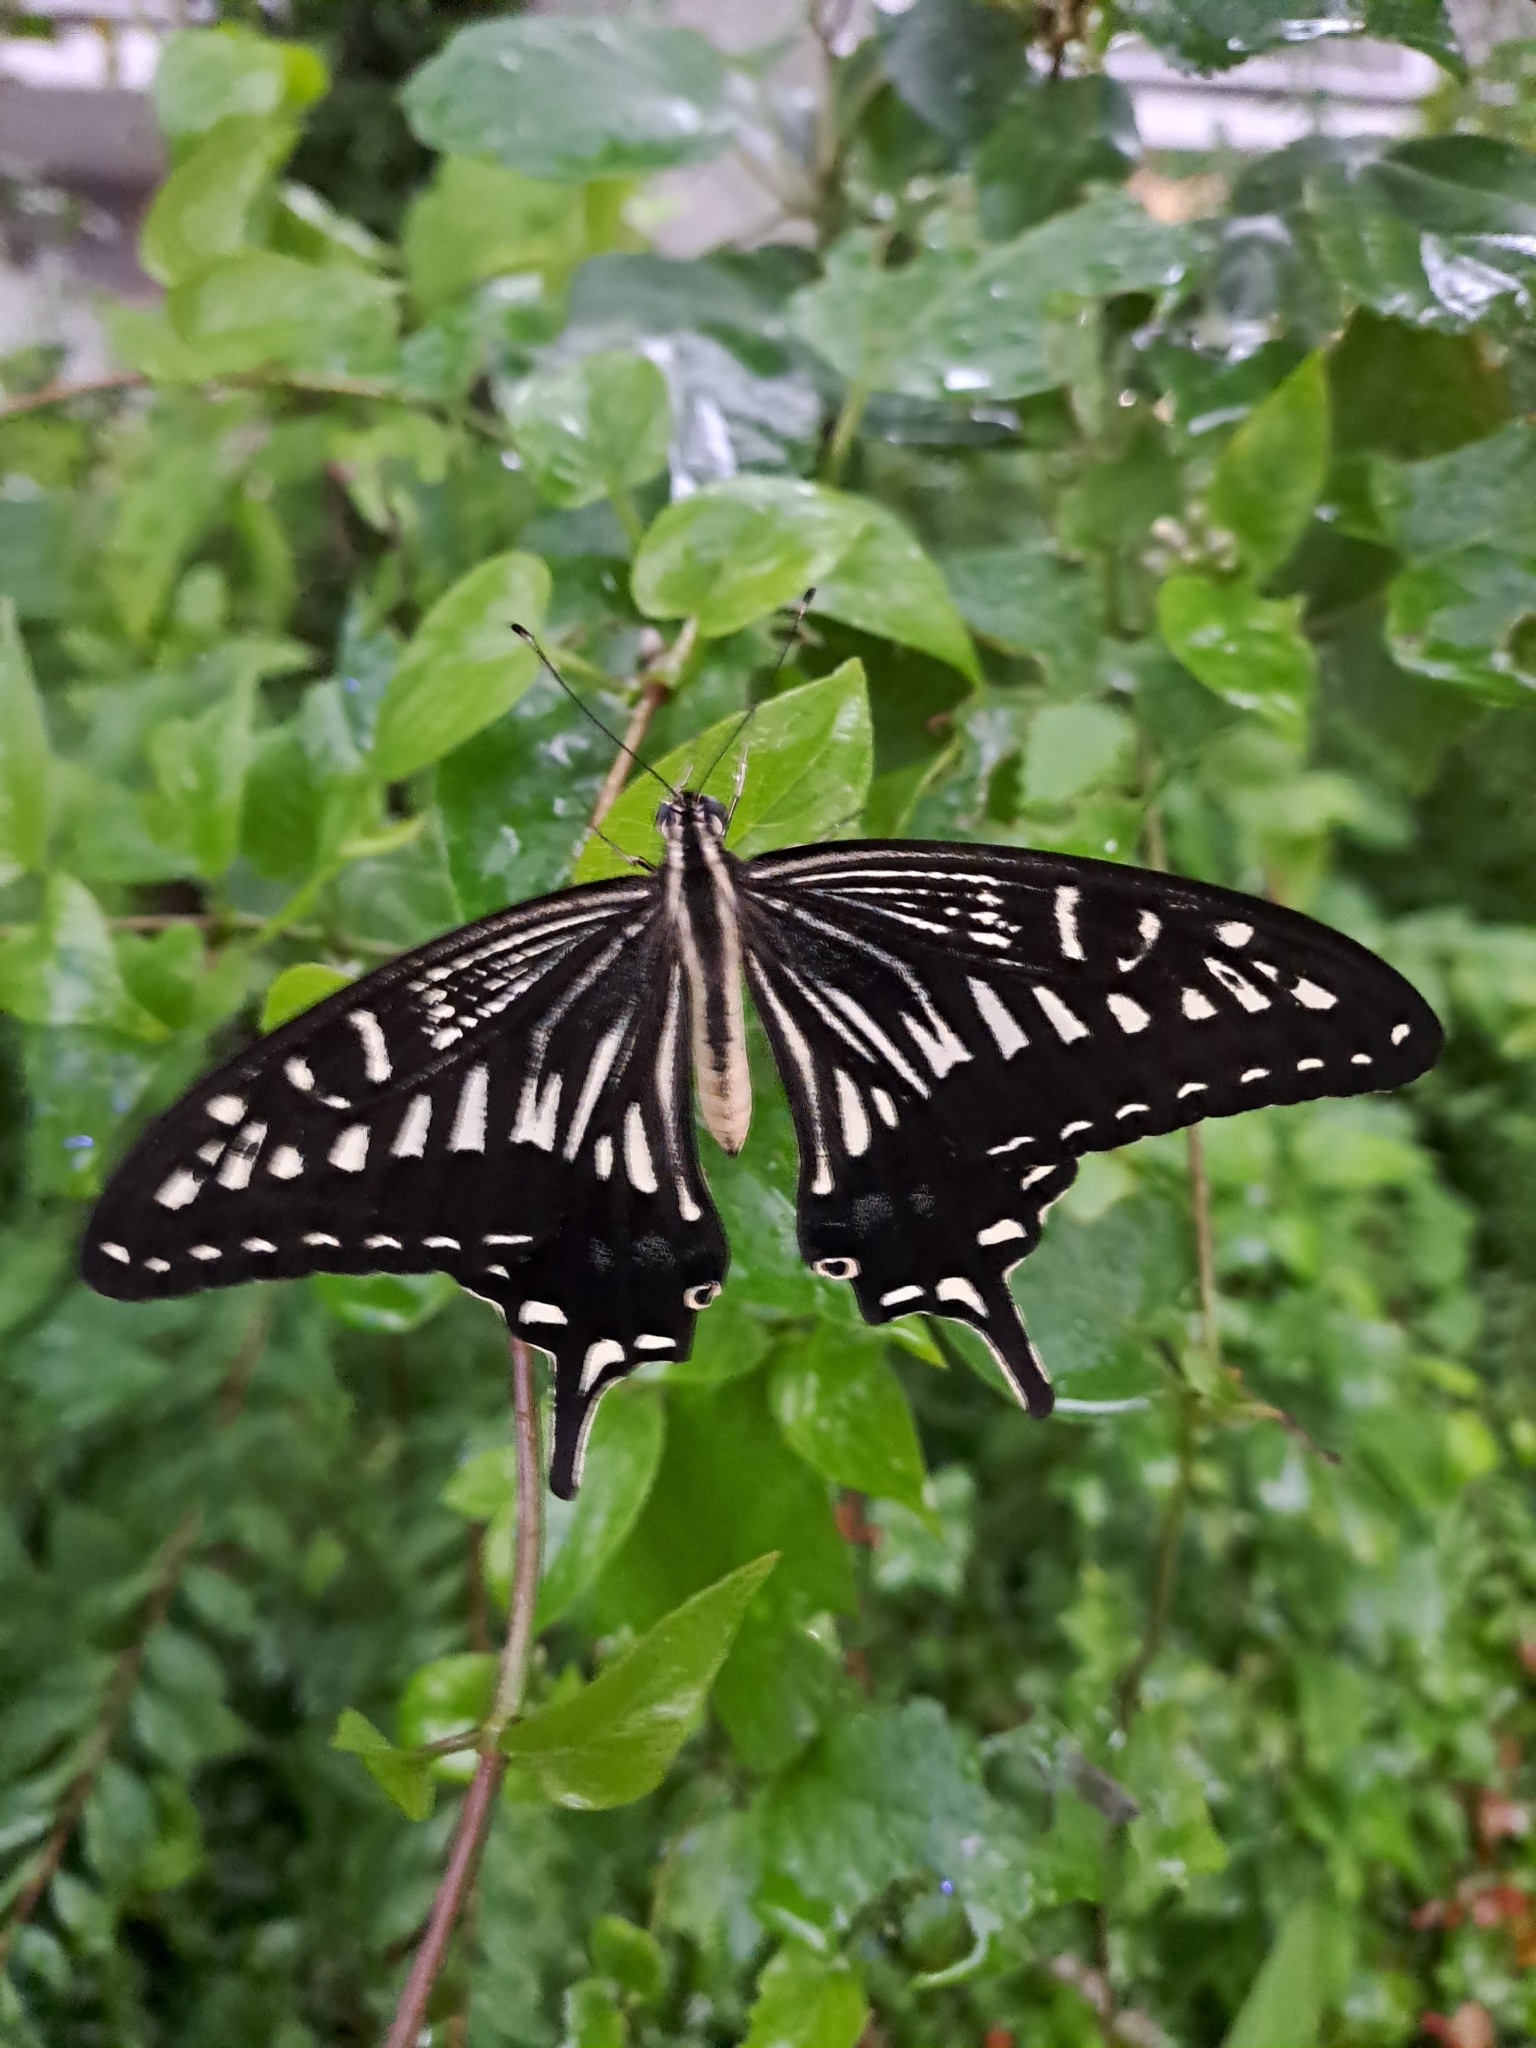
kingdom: Animalia
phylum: Arthropoda
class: Insecta
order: Lepidoptera
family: Papilionidae
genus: Papilio
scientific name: Papilio xuthus
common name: Asian swallowtail
